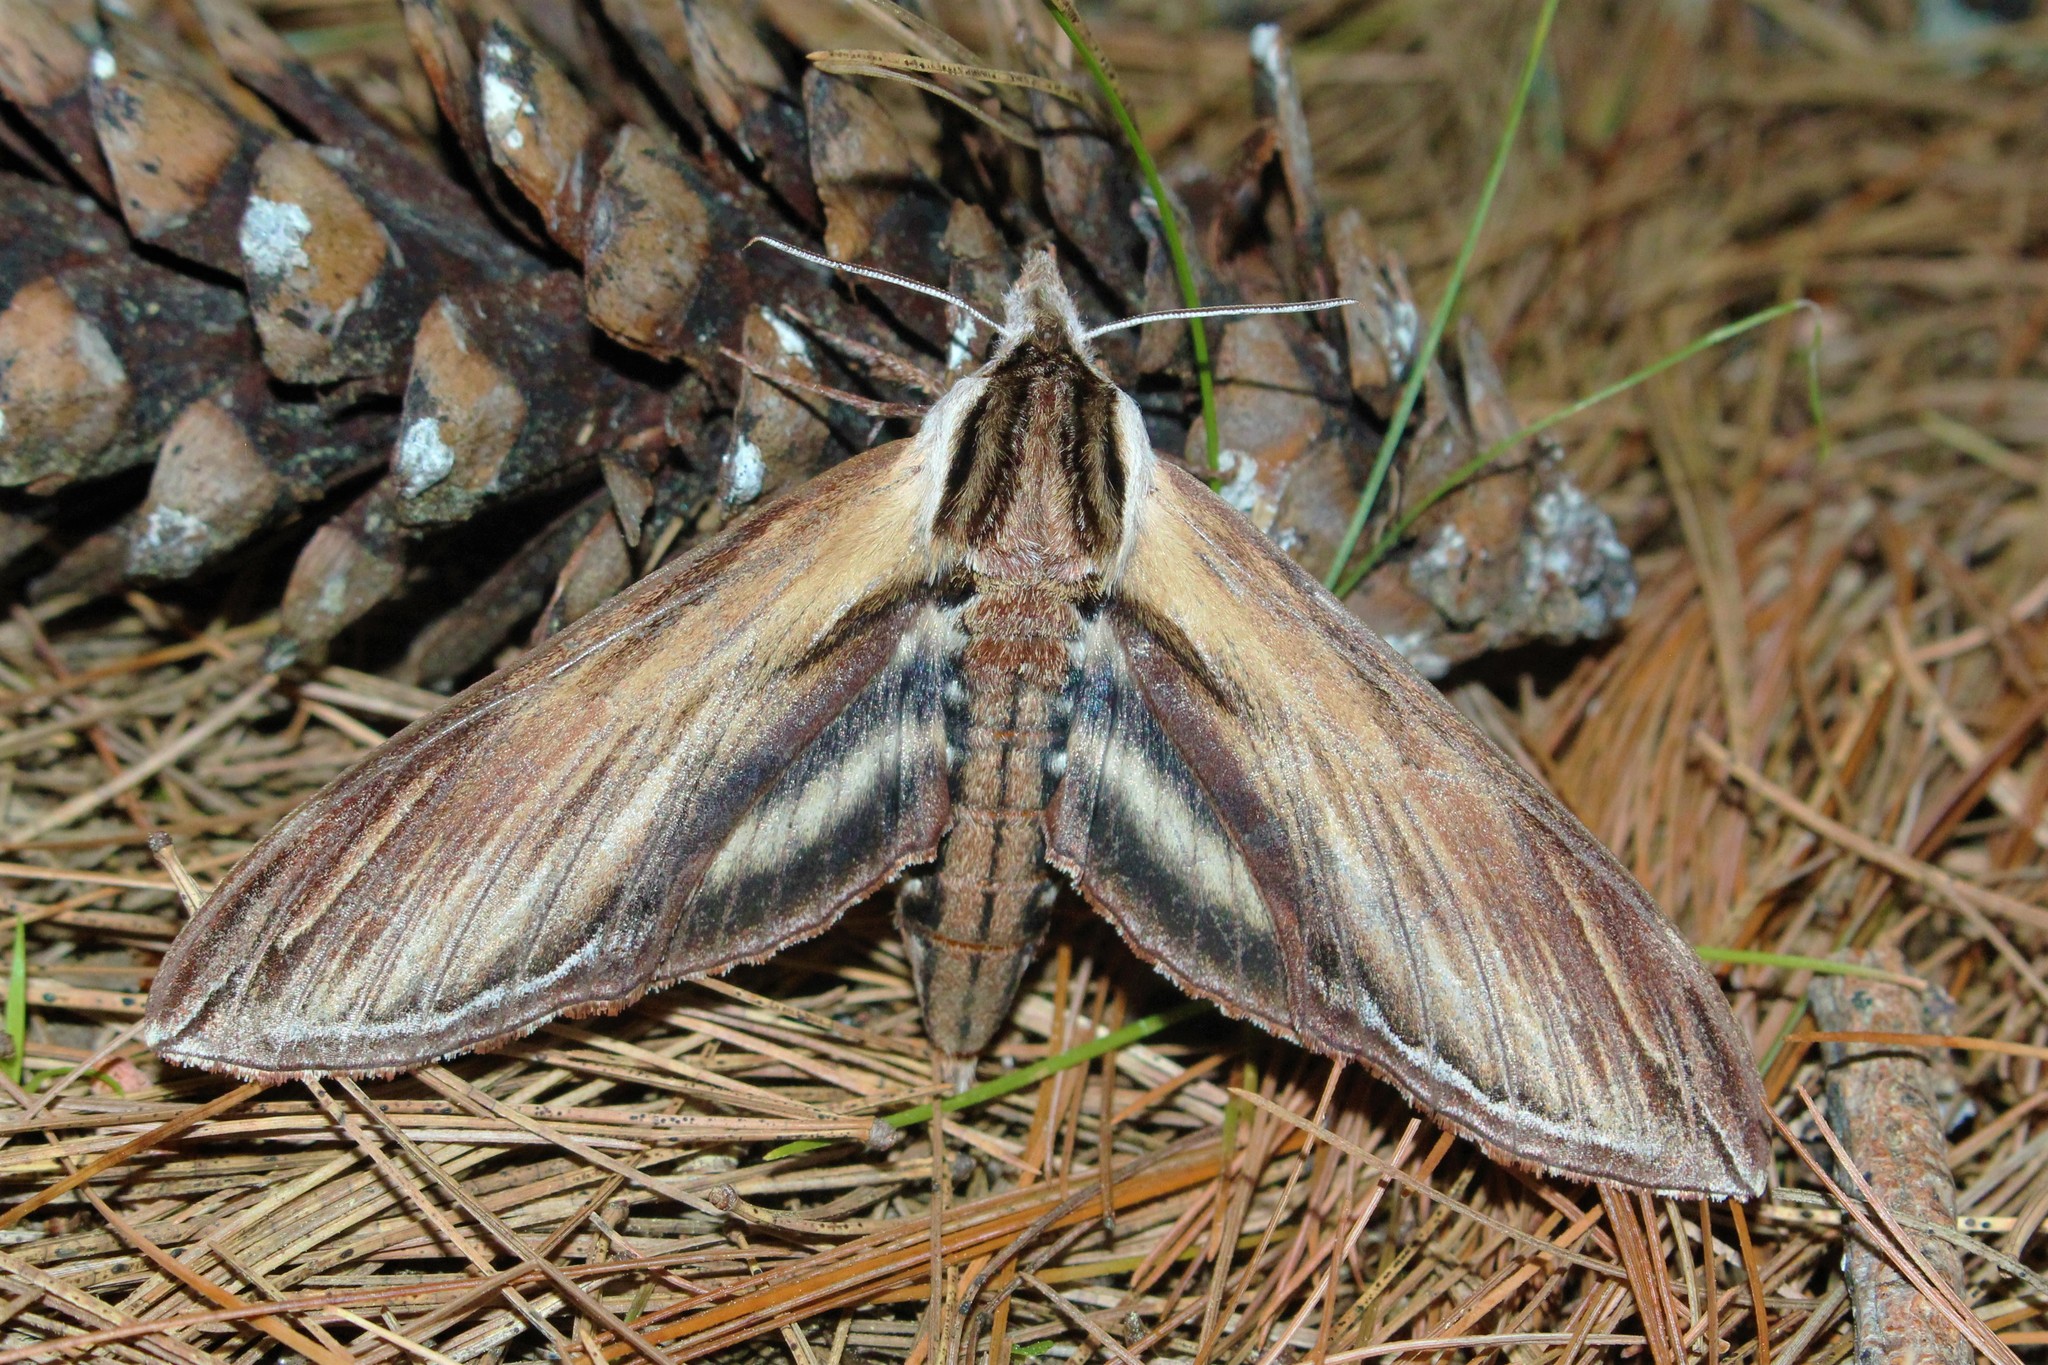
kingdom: Animalia
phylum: Arthropoda
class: Insecta
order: Lepidoptera
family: Sphingidae
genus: Sphinx
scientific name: Sphinx kalmiae
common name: Laurel sphinx
